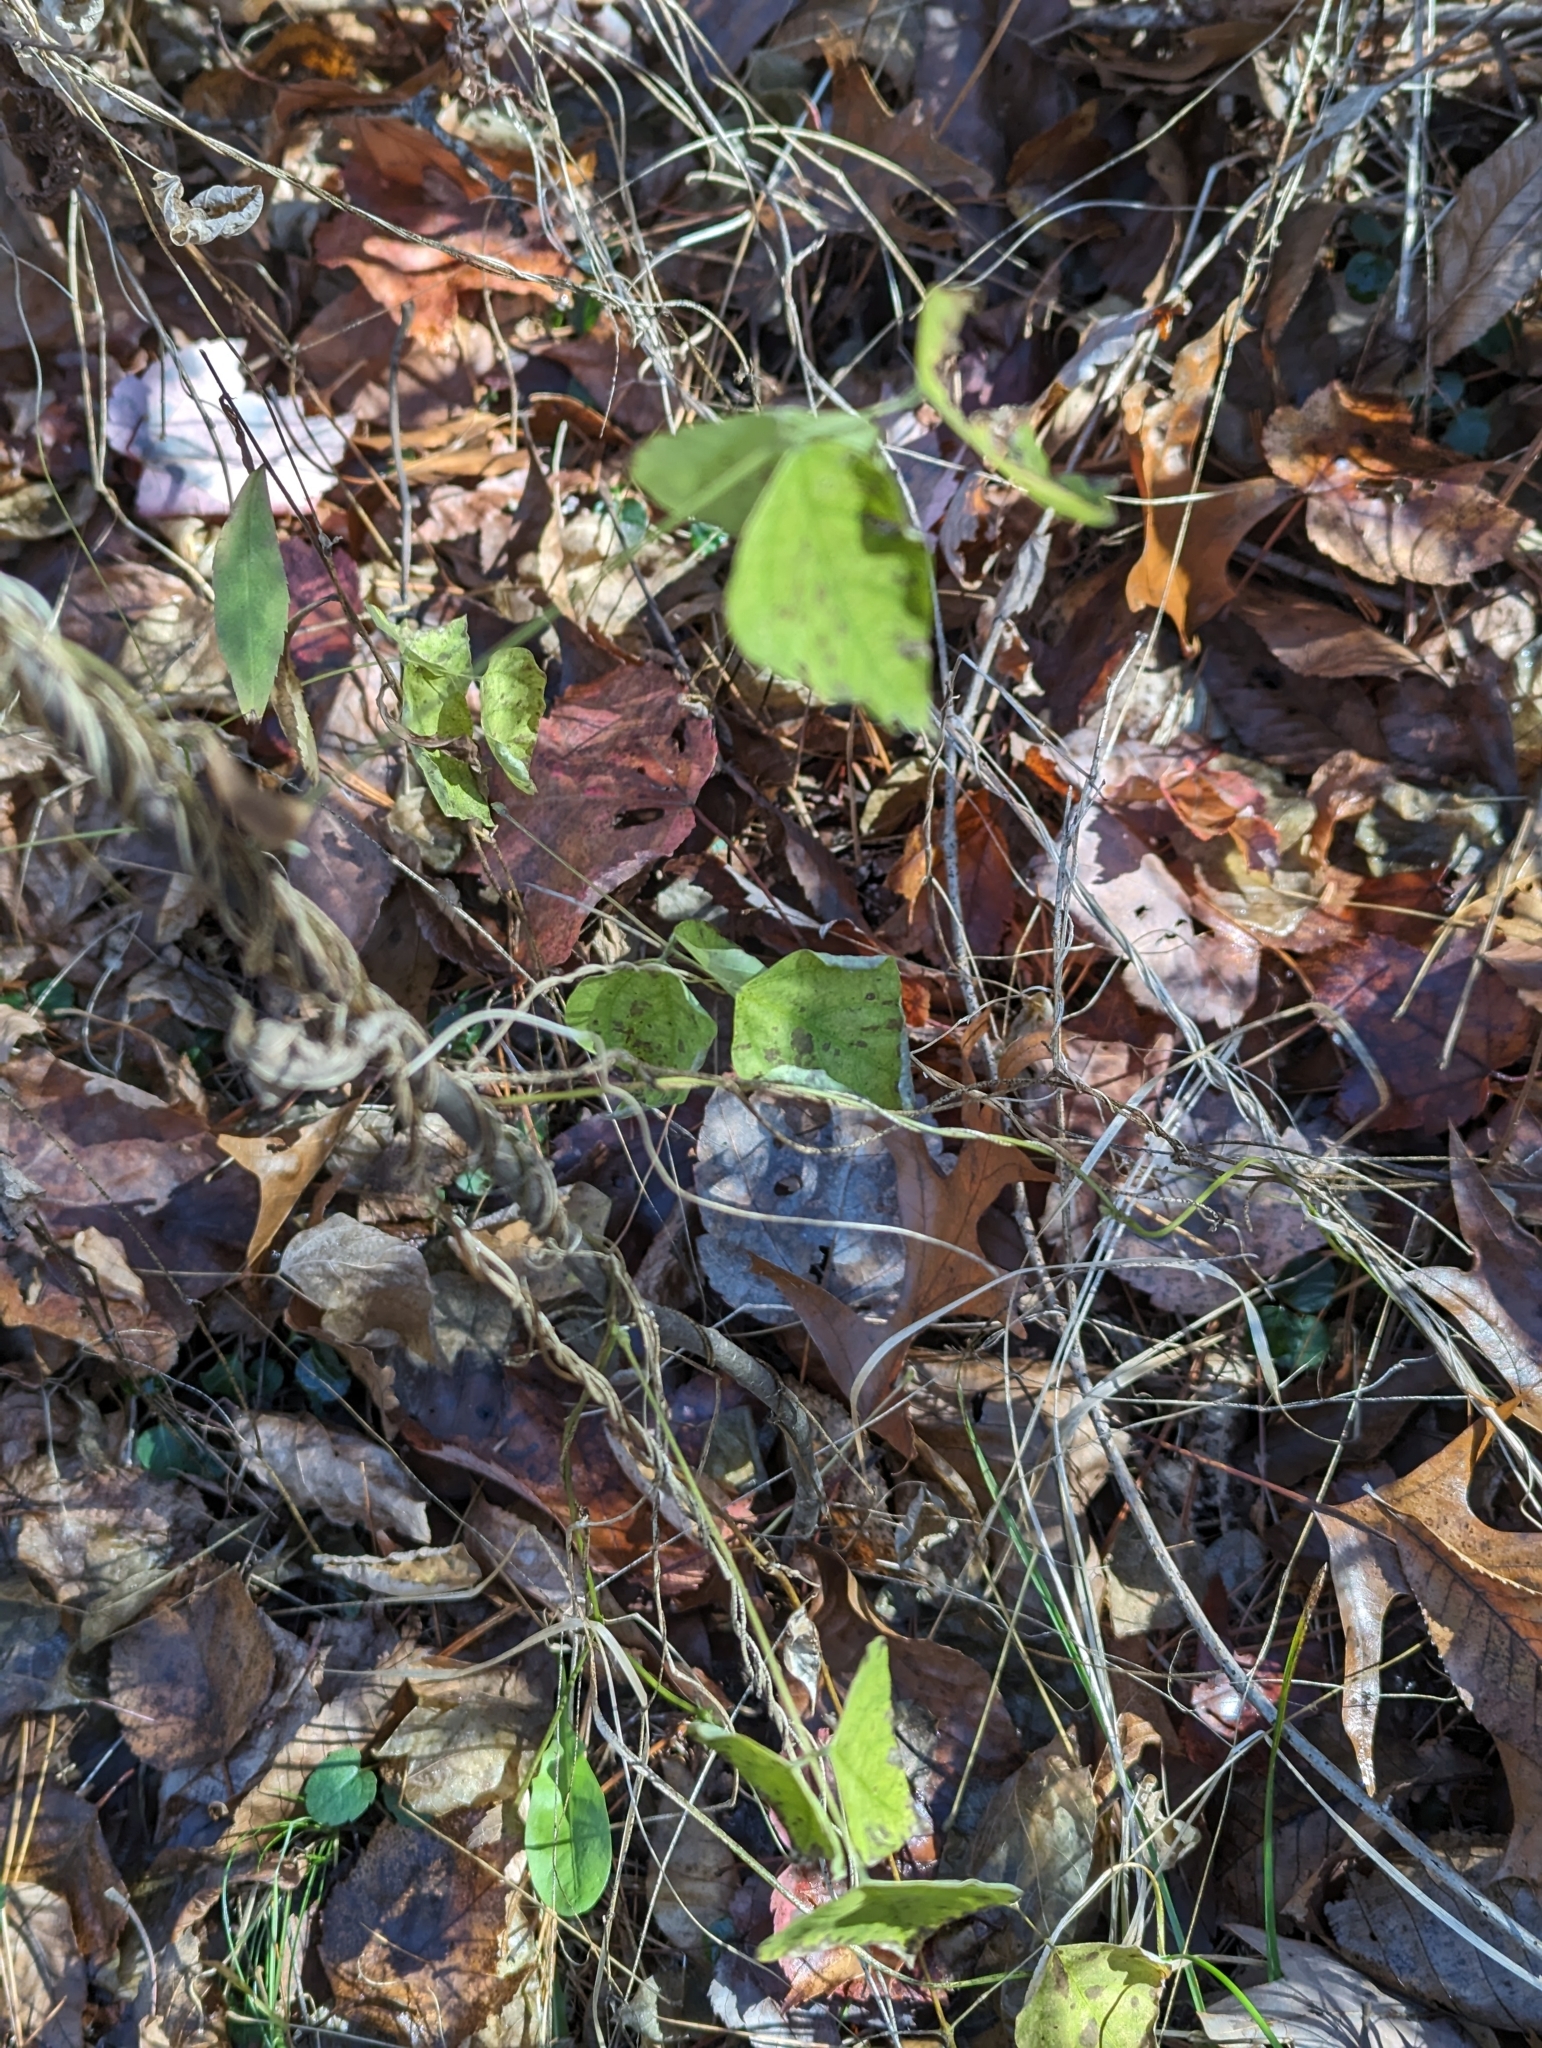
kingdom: Plantae
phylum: Tracheophyta
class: Magnoliopsida
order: Fabales
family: Fabaceae
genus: Amphicarpaea
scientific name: Amphicarpaea bracteata
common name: American hog peanut
